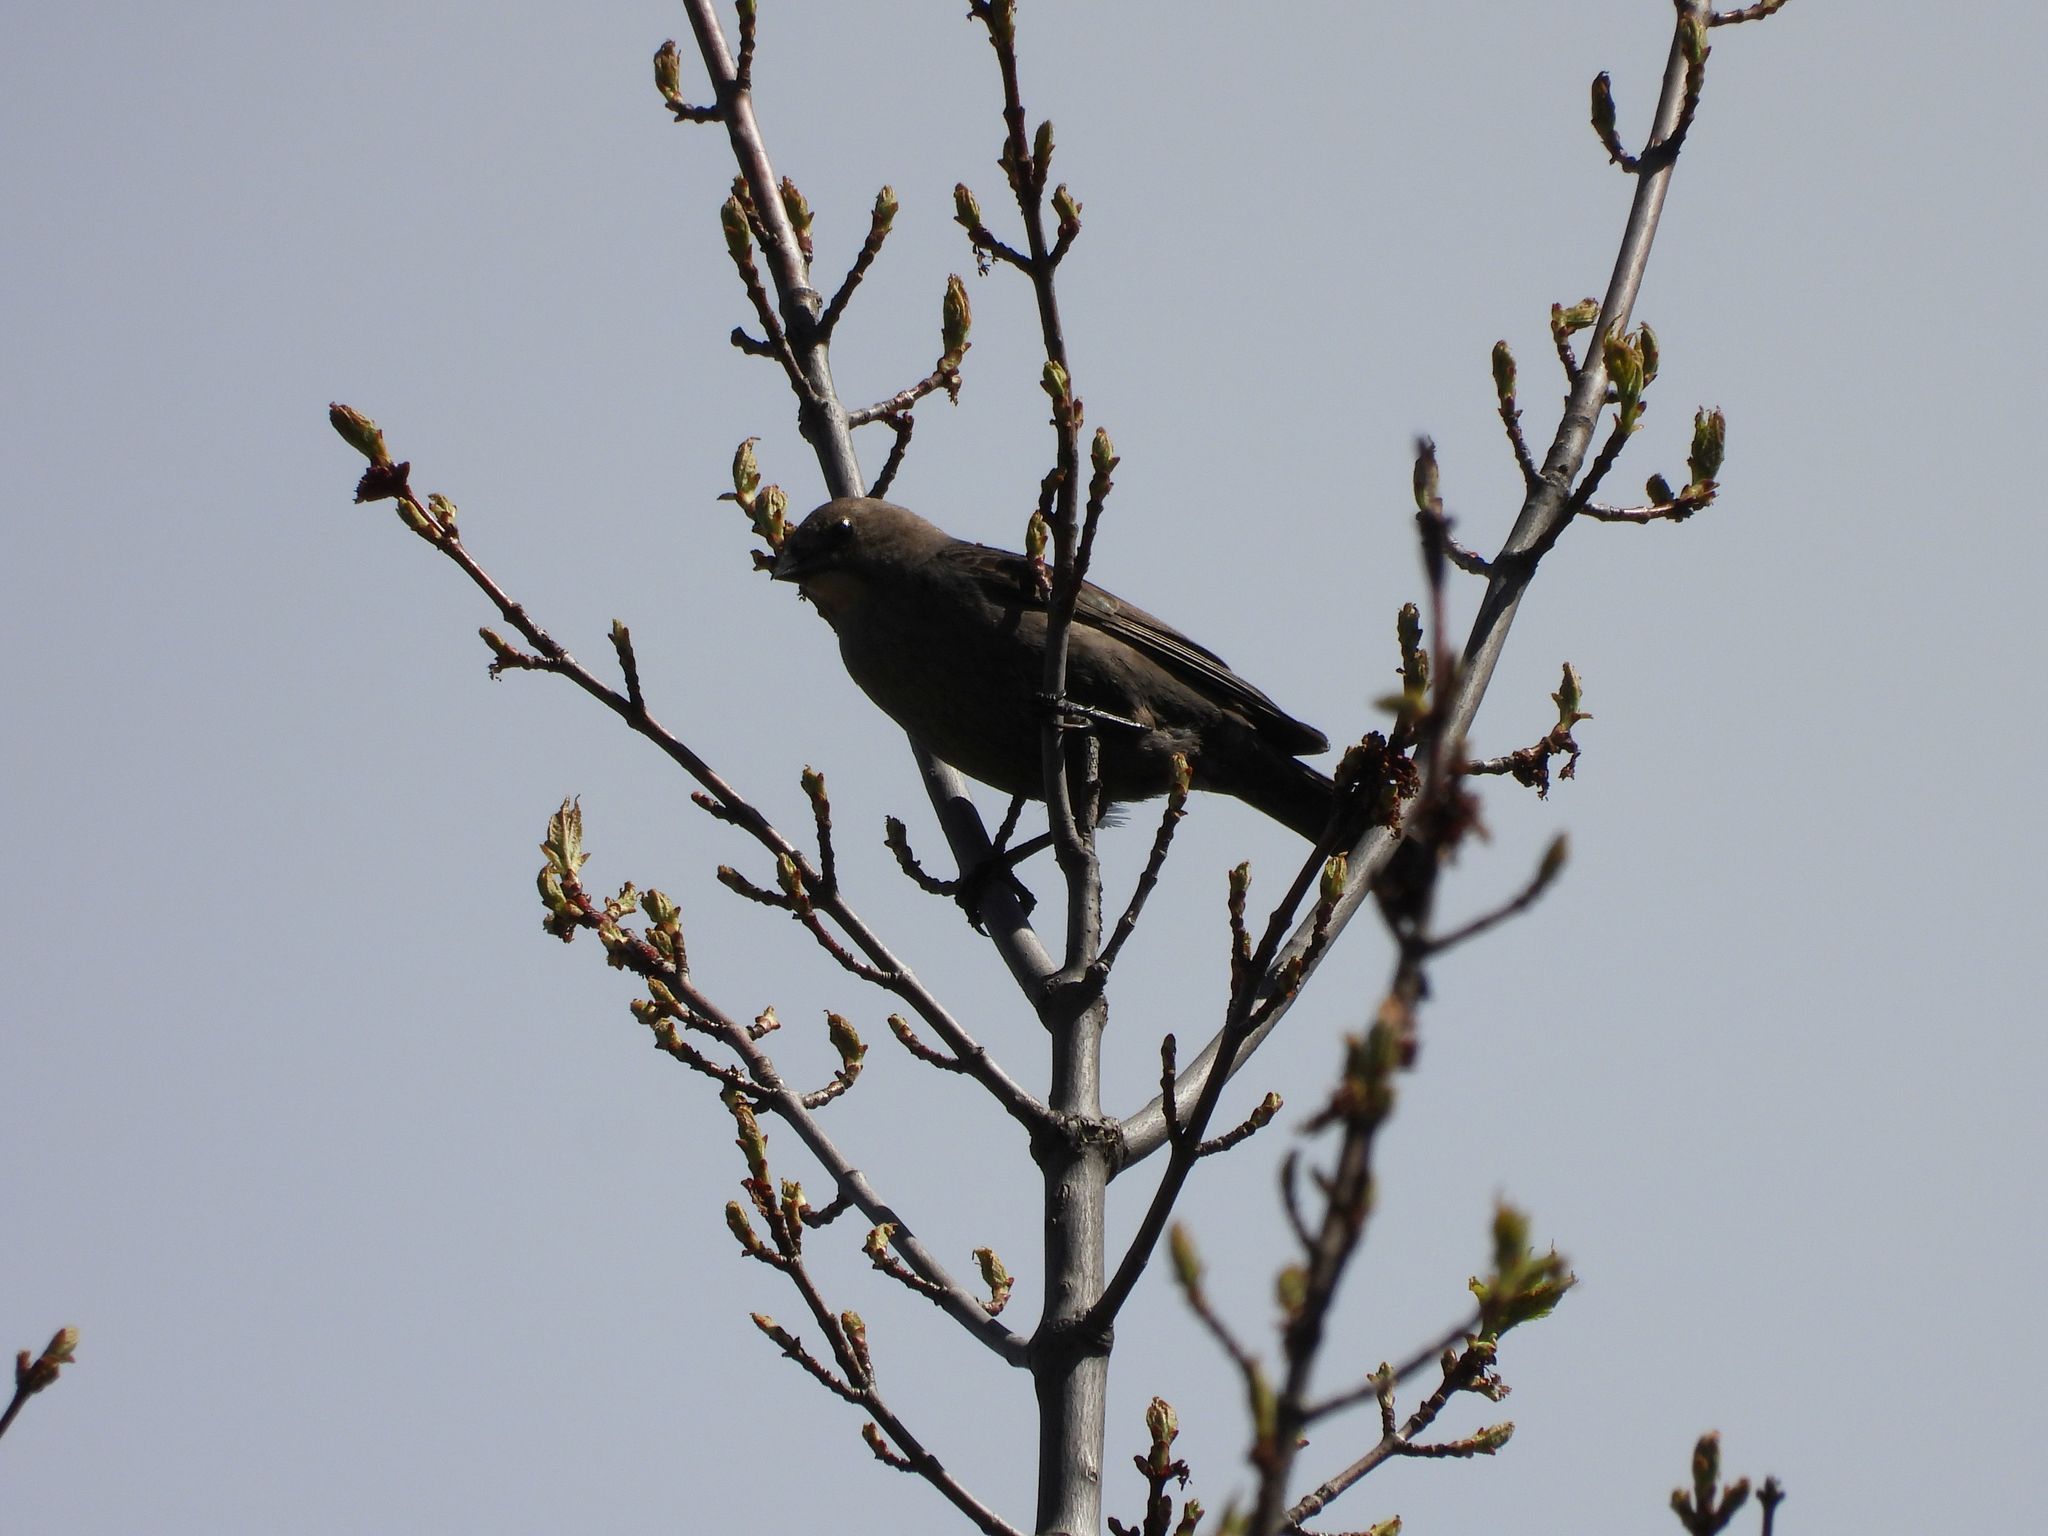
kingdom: Animalia
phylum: Chordata
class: Aves
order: Passeriformes
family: Icteridae
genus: Molothrus
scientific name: Molothrus ater
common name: Brown-headed cowbird
